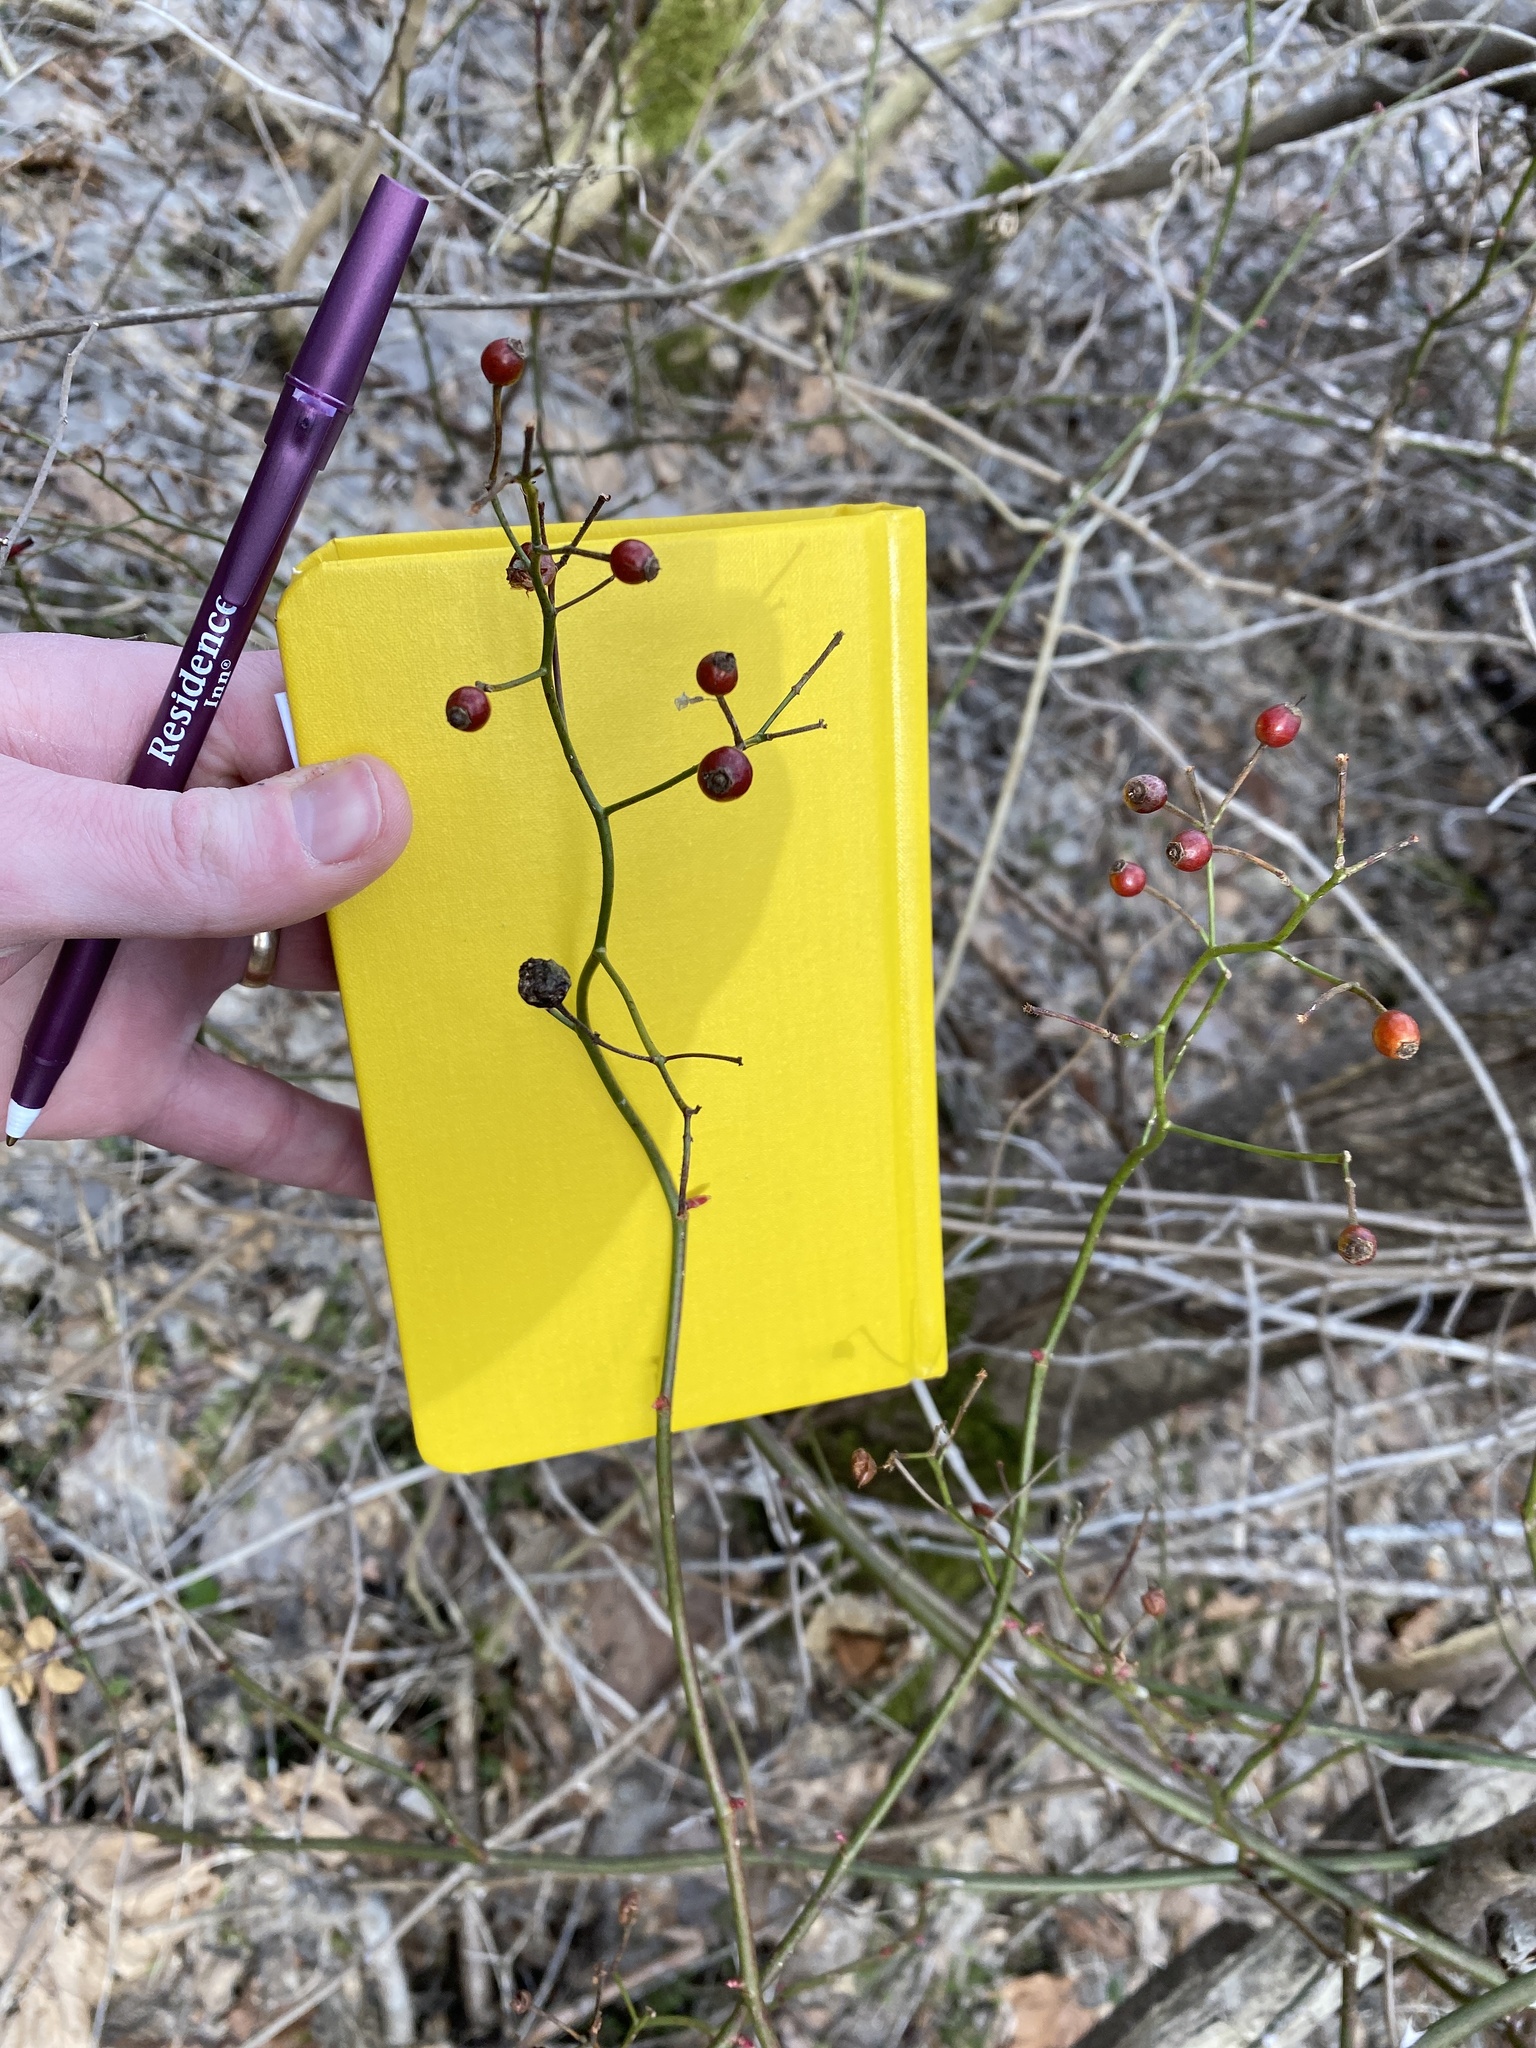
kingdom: Plantae
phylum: Tracheophyta
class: Magnoliopsida
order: Rosales
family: Rosaceae
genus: Rosa
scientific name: Rosa multiflora
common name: Multiflora rose
